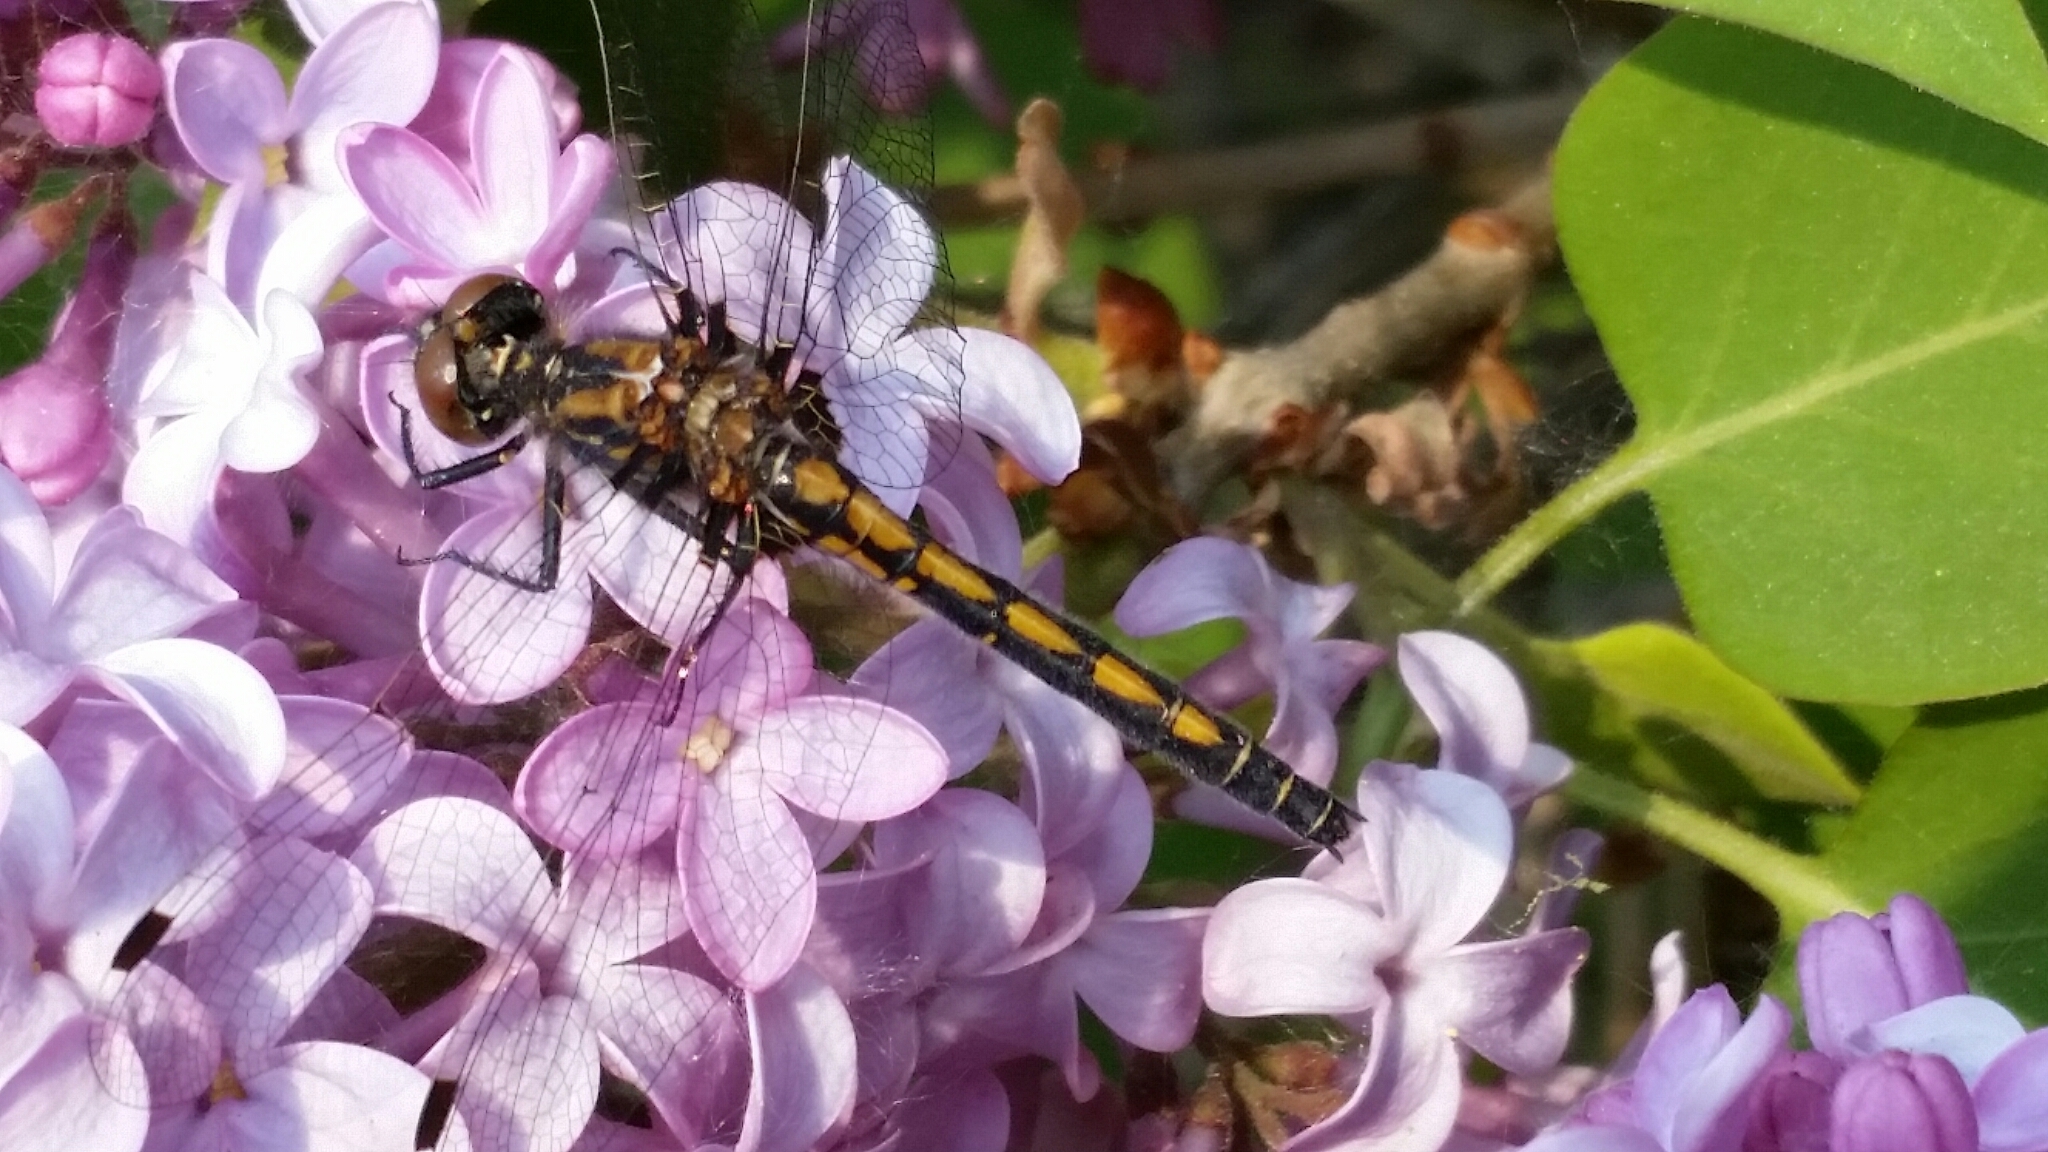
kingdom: Animalia
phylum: Arthropoda
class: Insecta
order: Odonata
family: Libellulidae
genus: Leucorrhinia
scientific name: Leucorrhinia hudsonica
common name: Hudsonian whiteface
